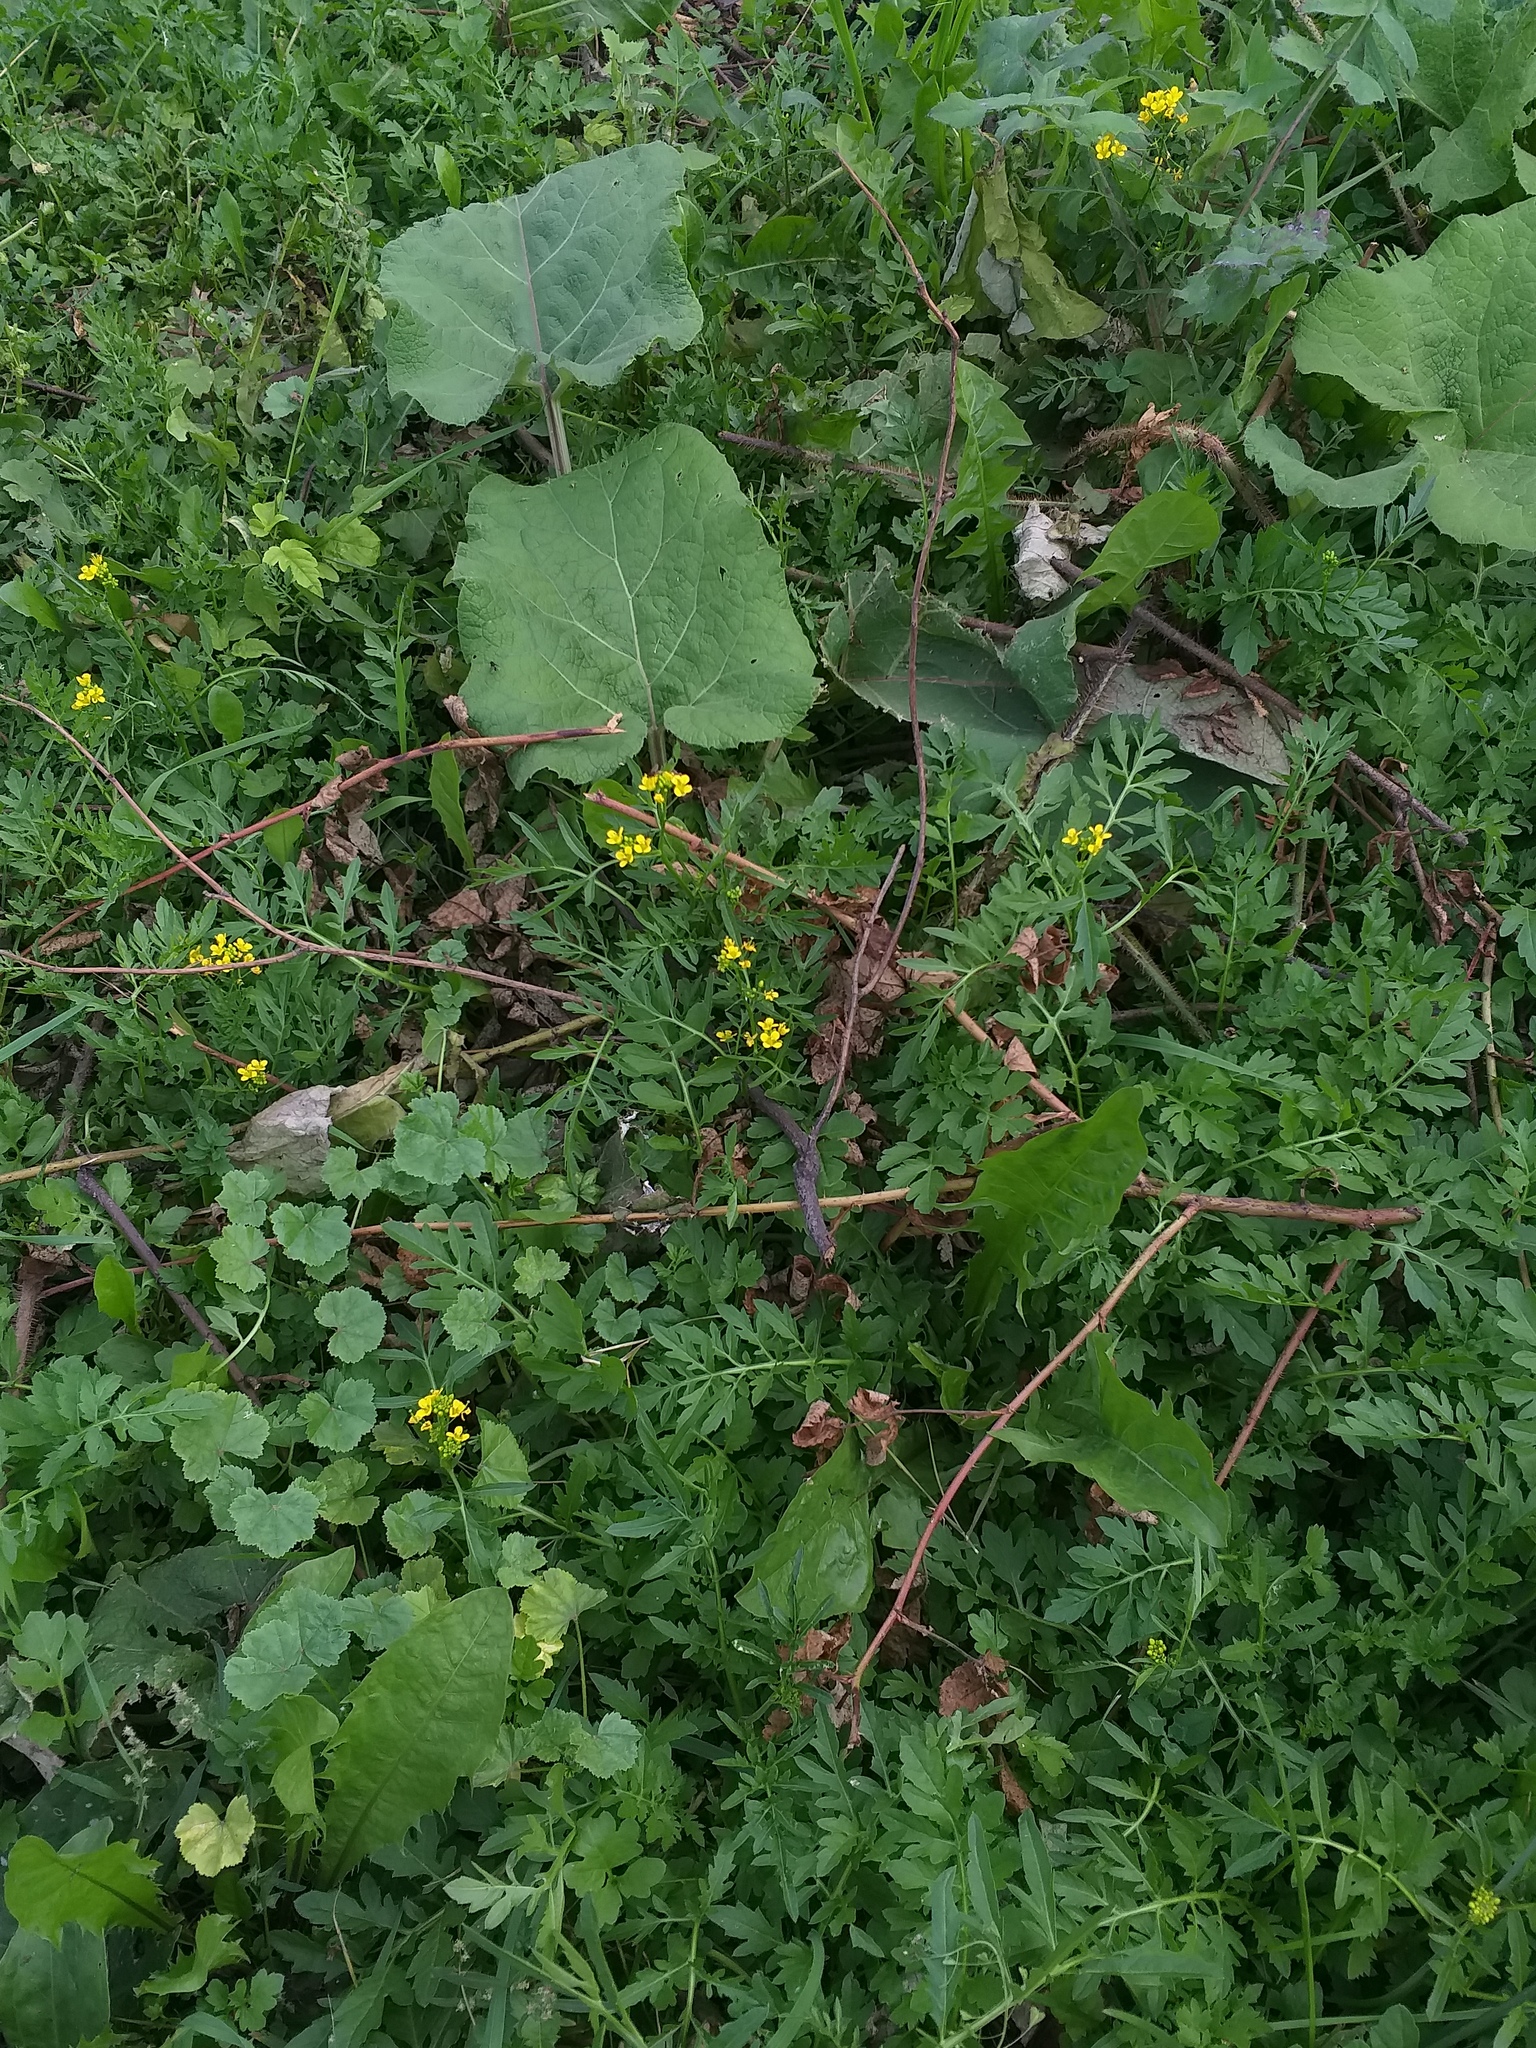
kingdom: Plantae
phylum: Tracheophyta
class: Magnoliopsida
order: Brassicales
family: Brassicaceae
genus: Rorippa
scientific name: Rorippa sylvestris
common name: Creeping yellowcress
